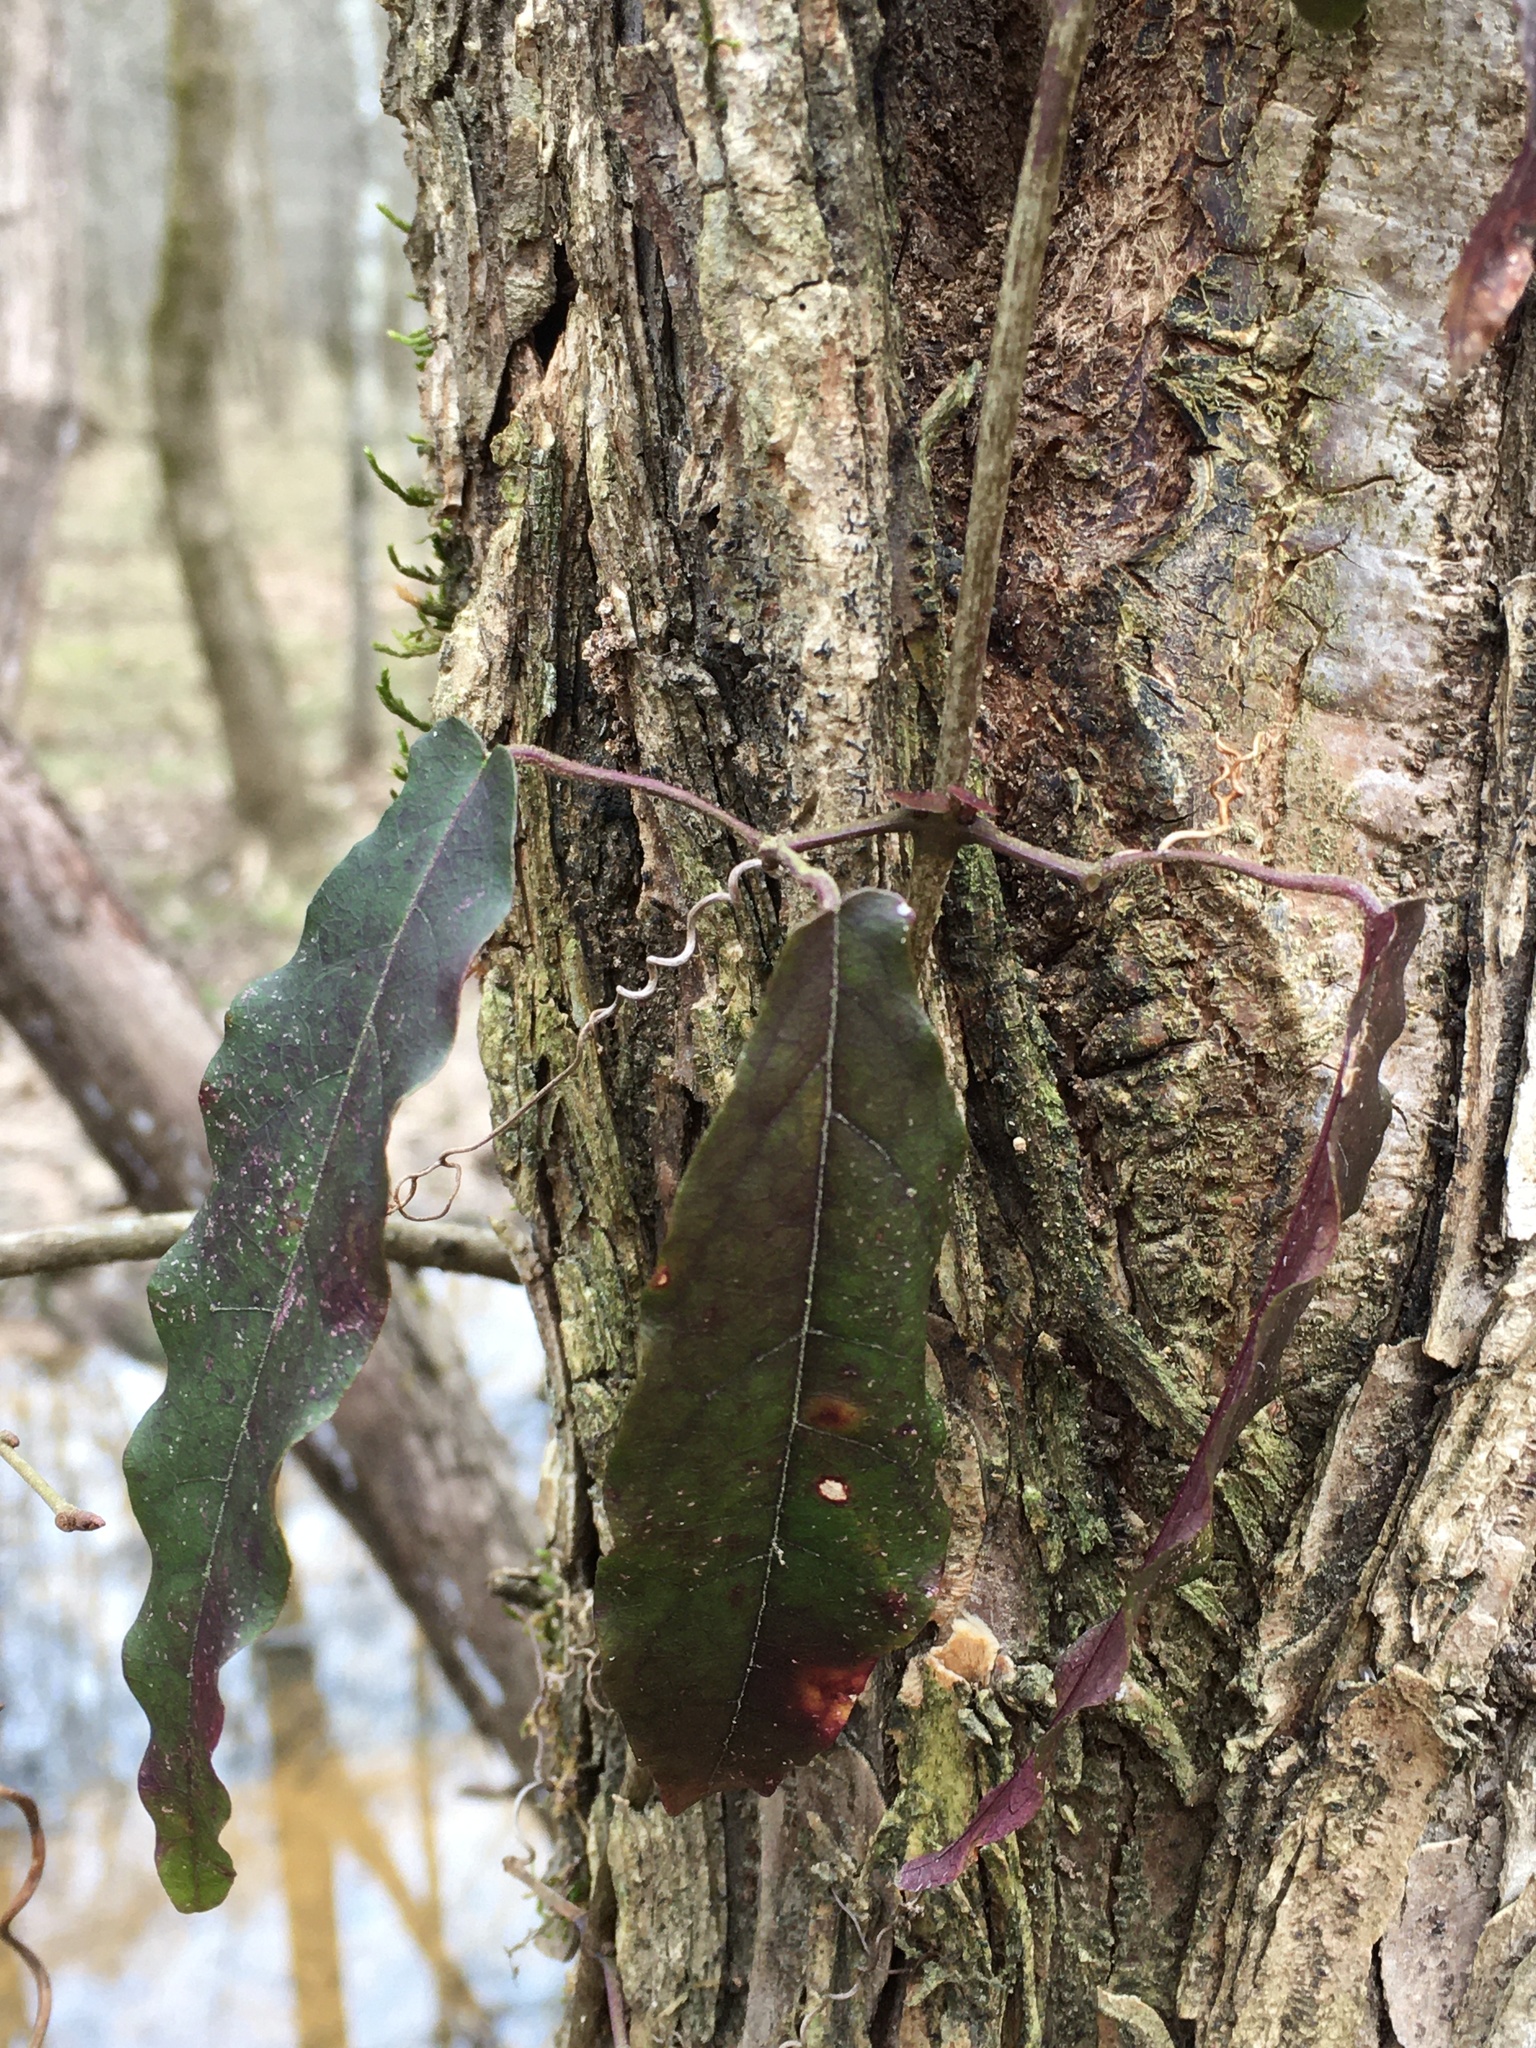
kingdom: Plantae
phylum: Tracheophyta
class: Magnoliopsida
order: Lamiales
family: Bignoniaceae
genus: Bignonia
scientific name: Bignonia capreolata
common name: Crossvine
